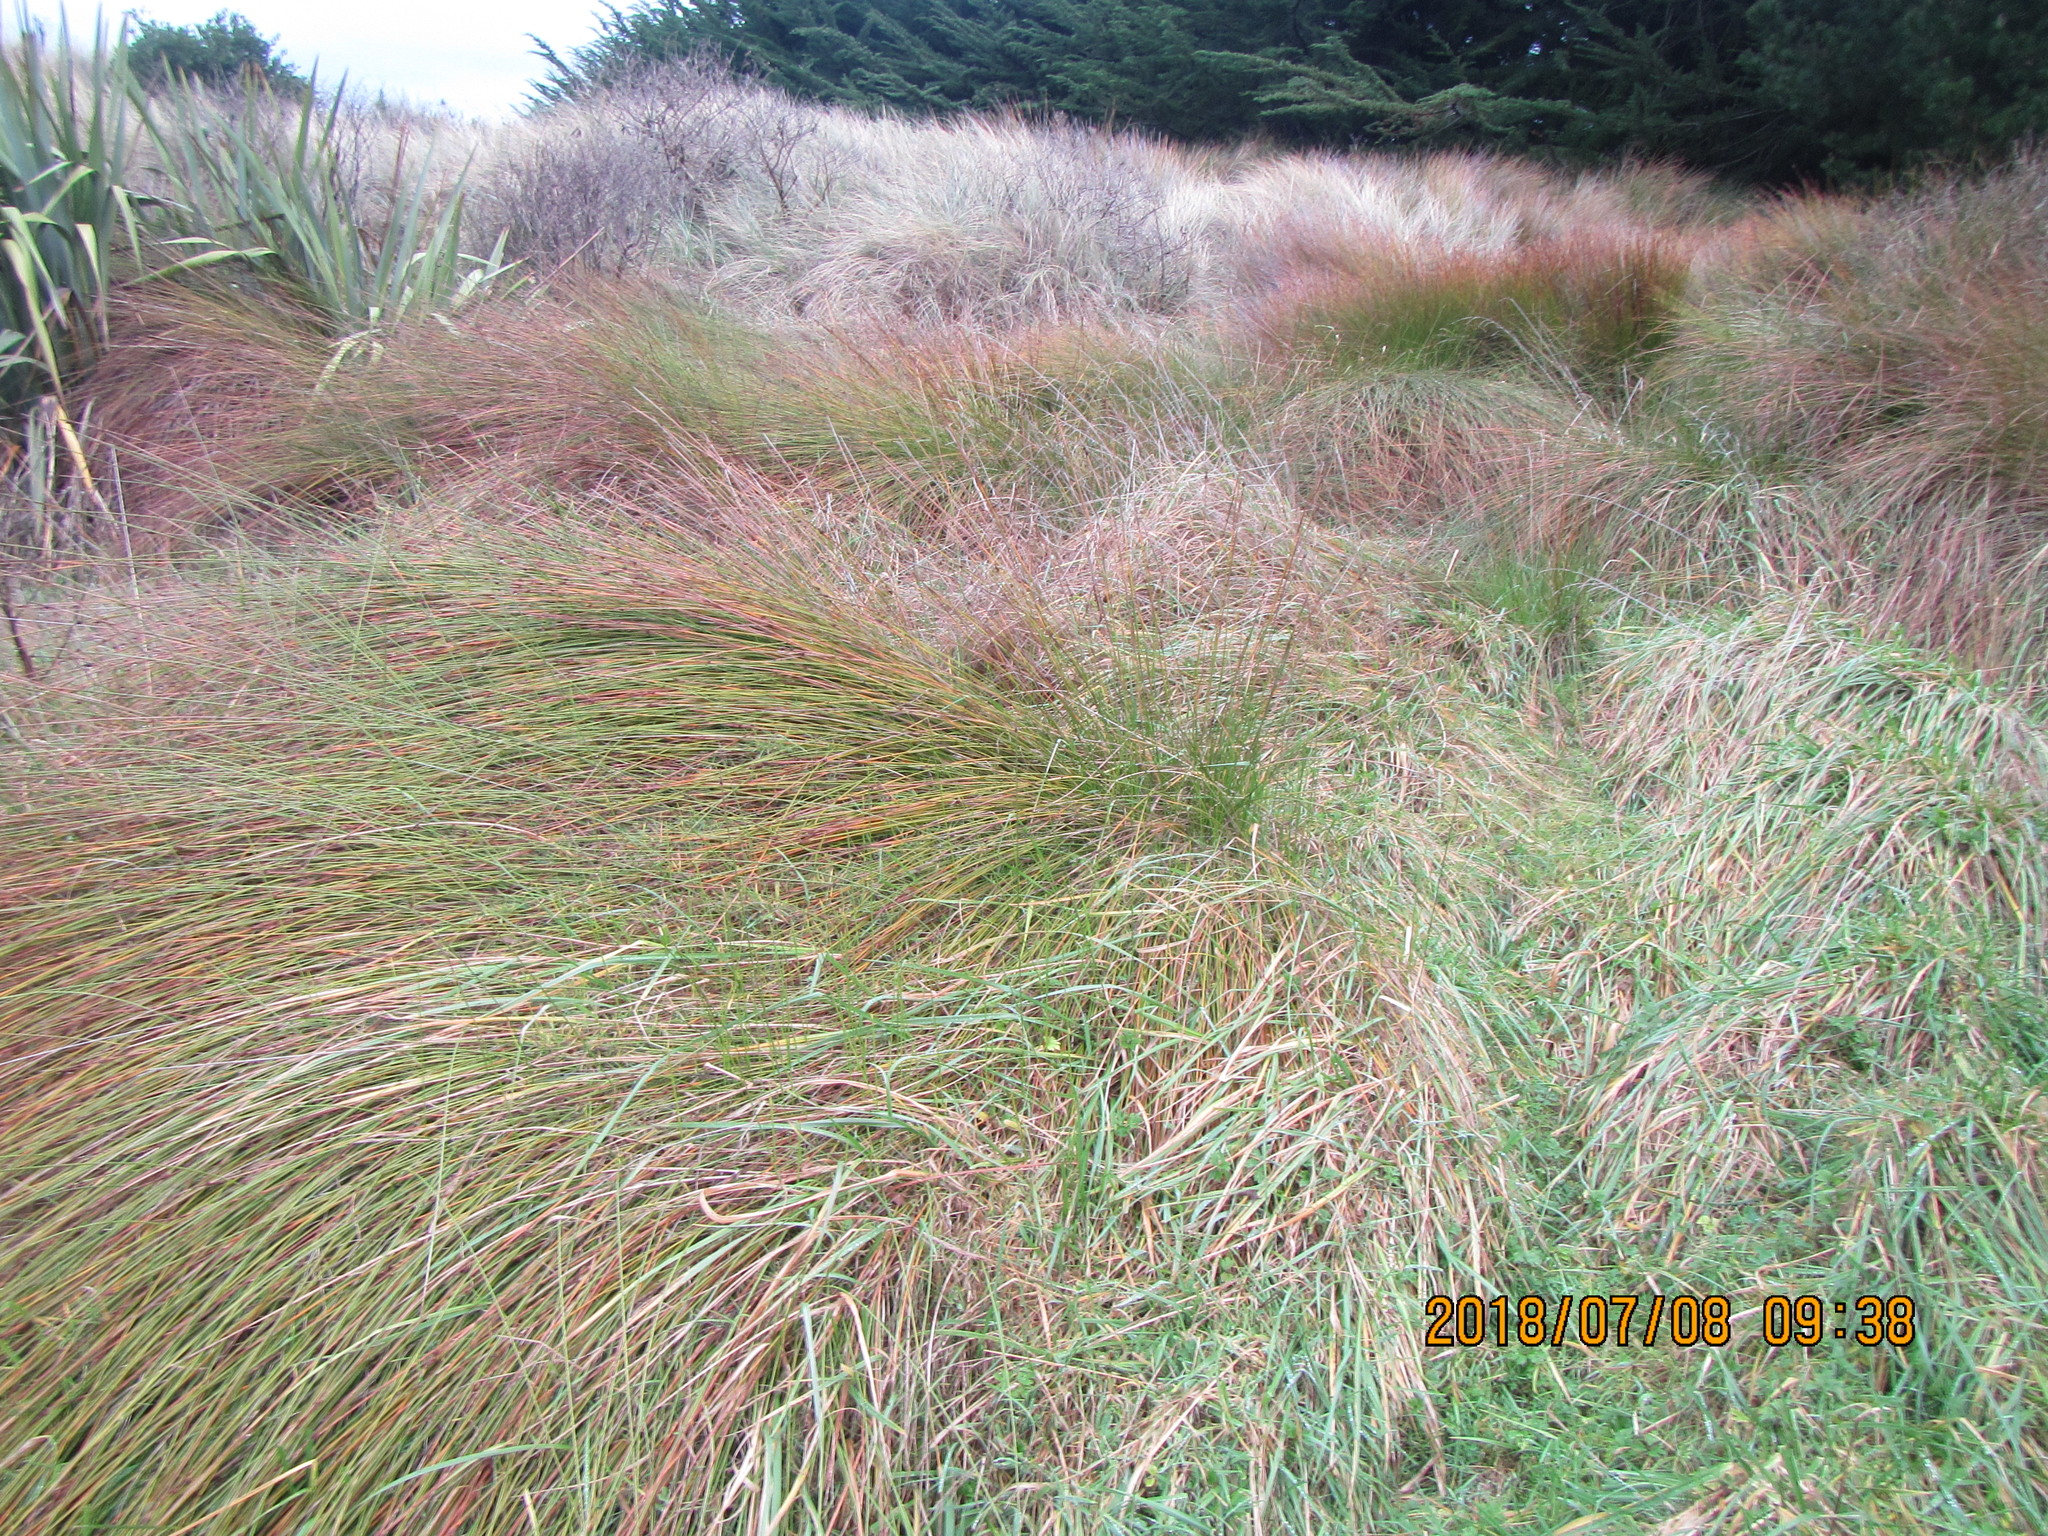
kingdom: Plantae
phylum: Tracheophyta
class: Liliopsida
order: Poales
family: Cyperaceae
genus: Ficinia
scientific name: Ficinia nodosa
